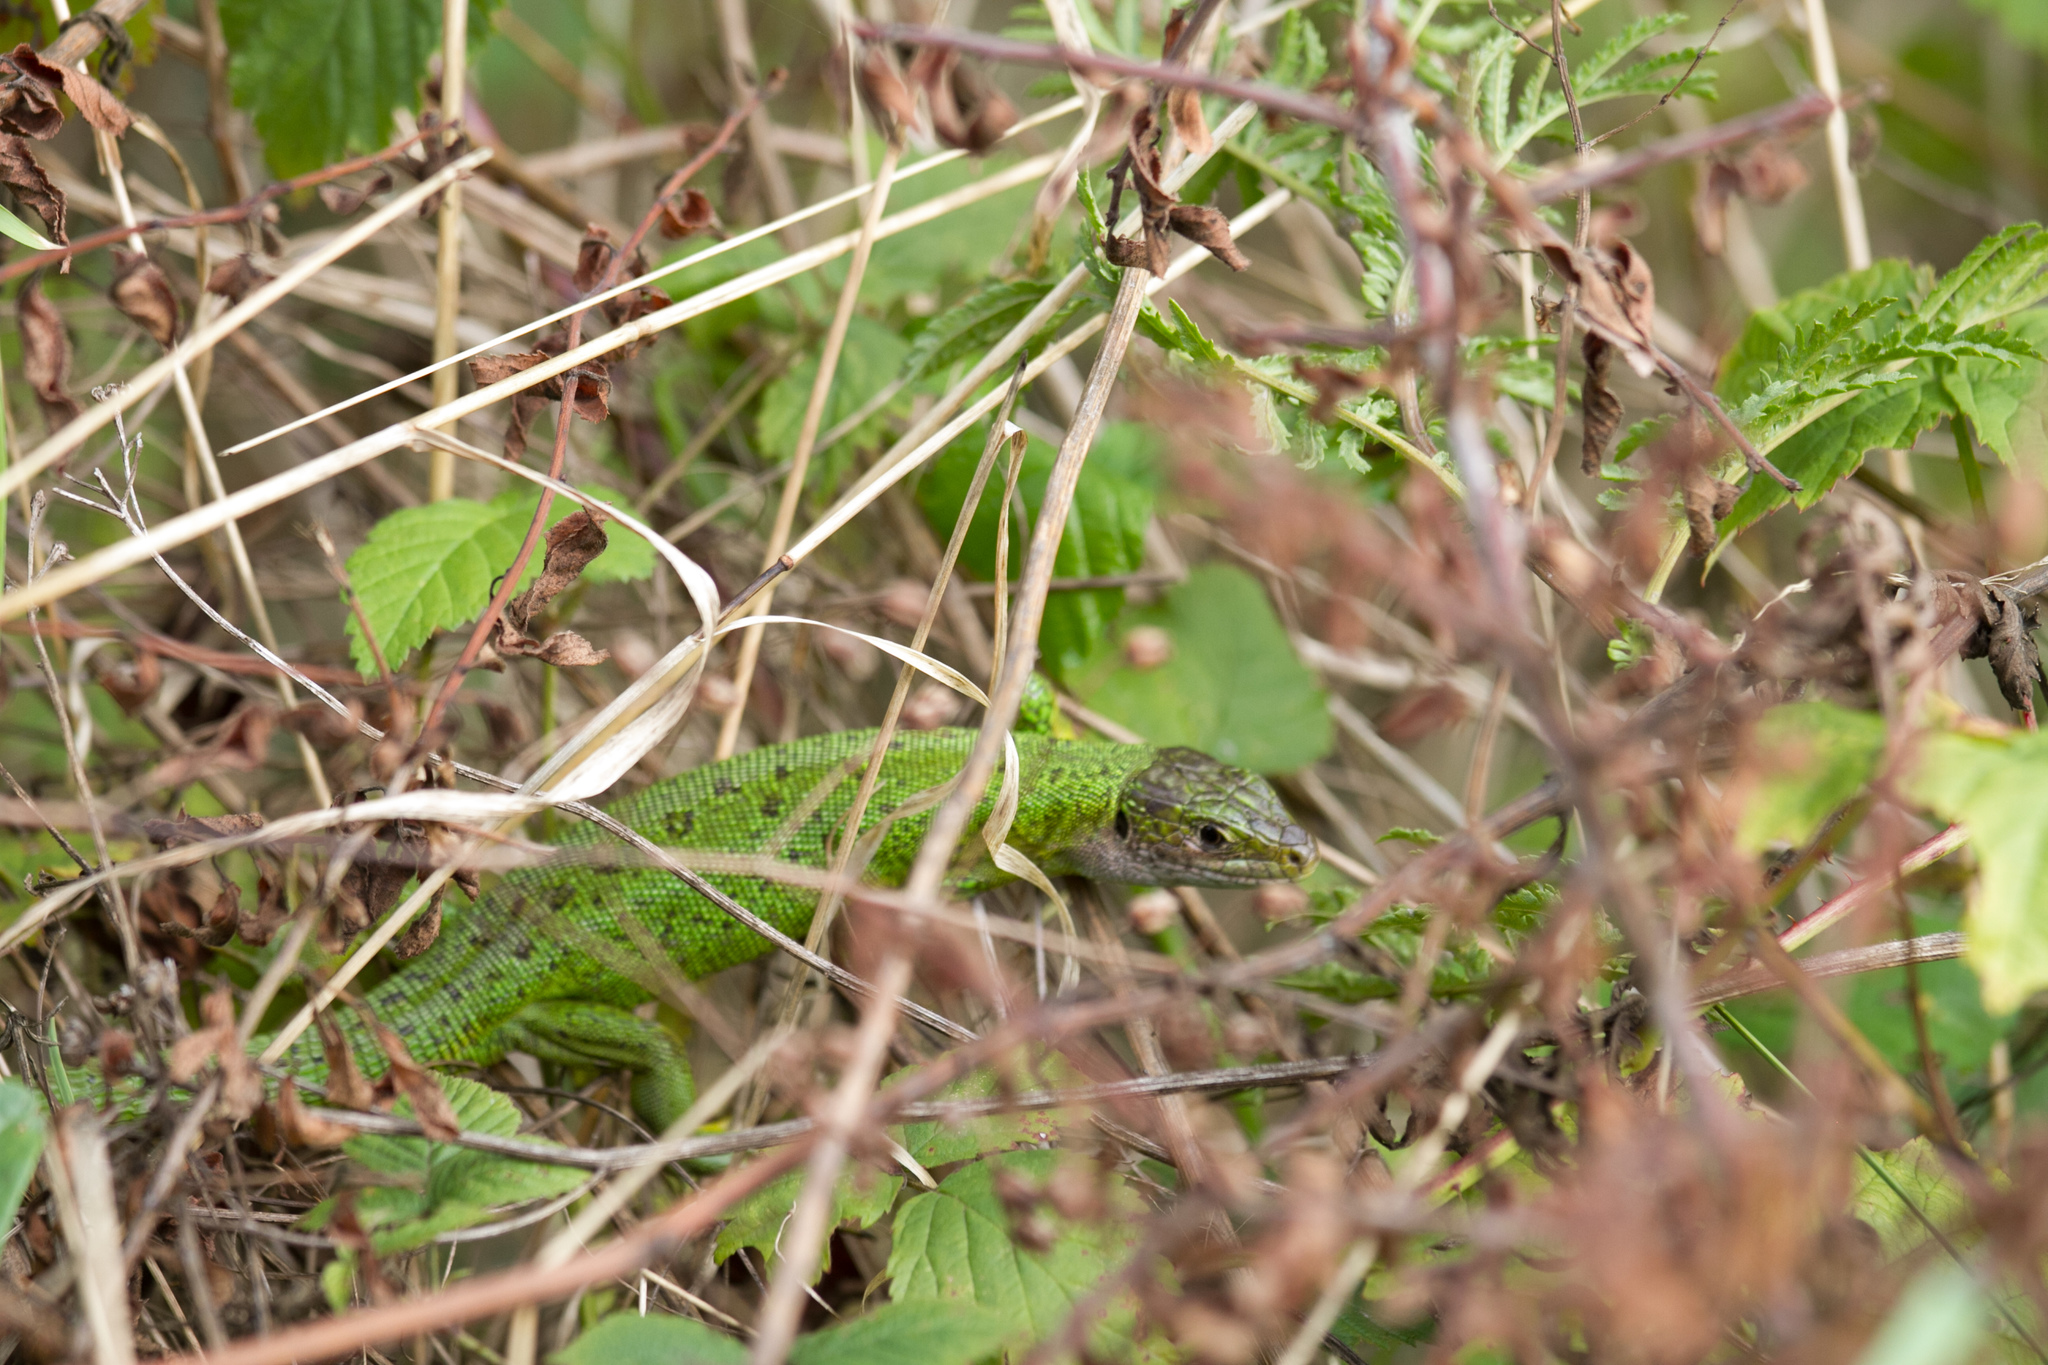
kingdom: Animalia
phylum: Chordata
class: Squamata
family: Lacertidae
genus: Lacerta
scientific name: Lacerta bilineata
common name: Western green lizard
